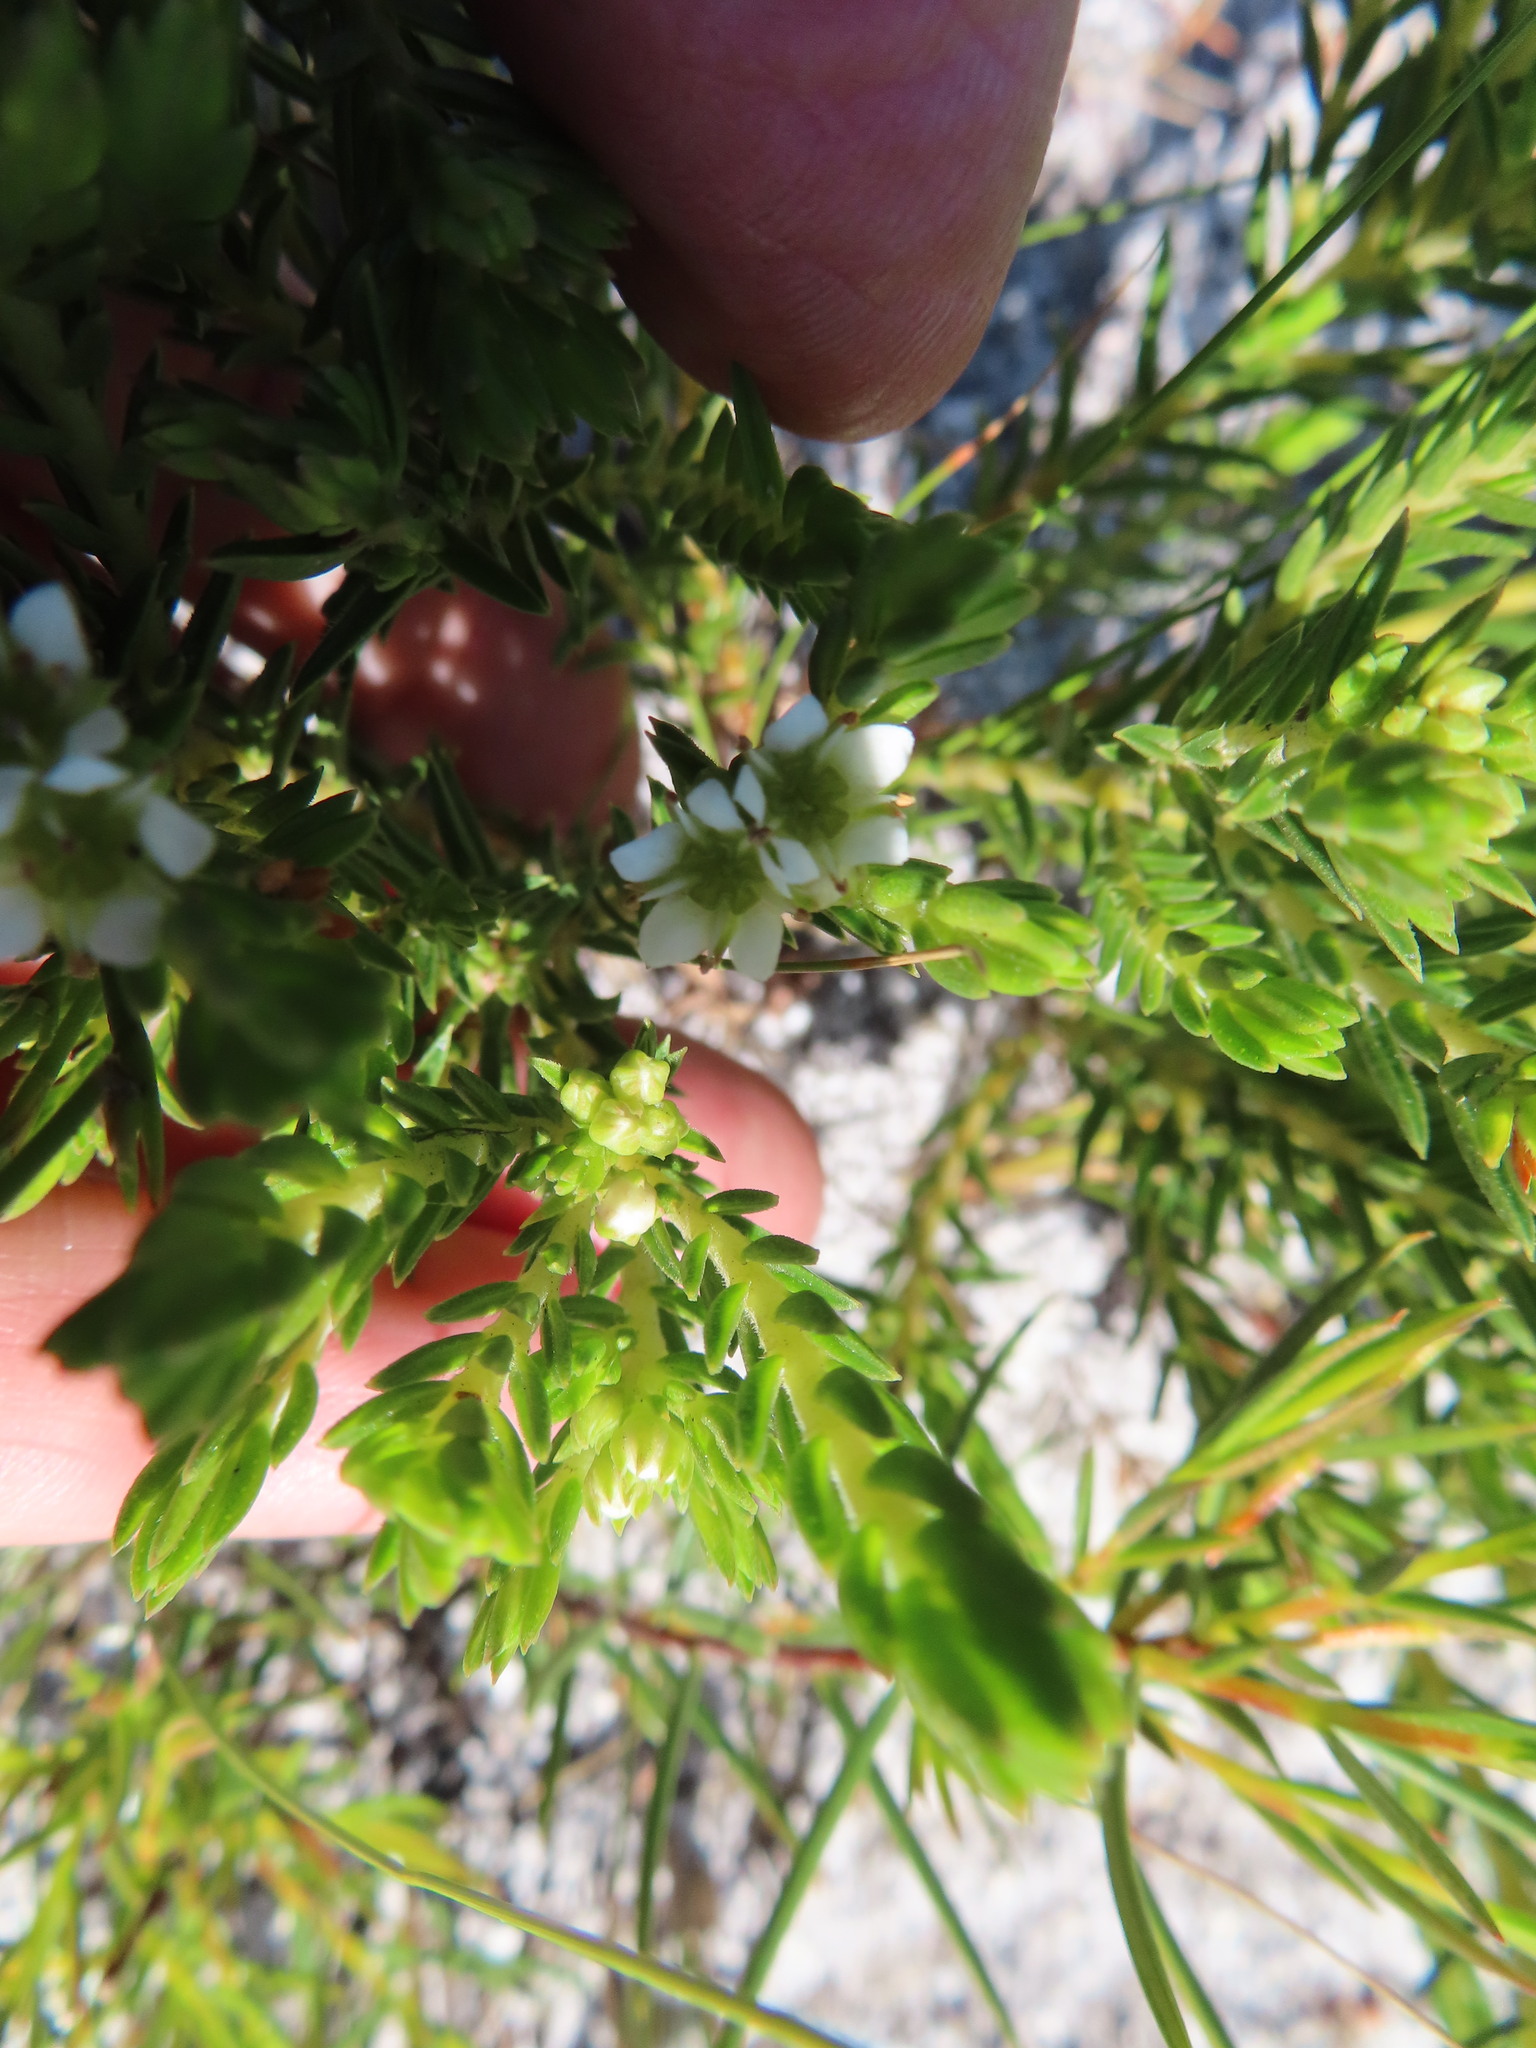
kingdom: Plantae
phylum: Tracheophyta
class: Magnoliopsida
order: Sapindales
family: Rutaceae
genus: Diosma
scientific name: Diosma oppositifolia
